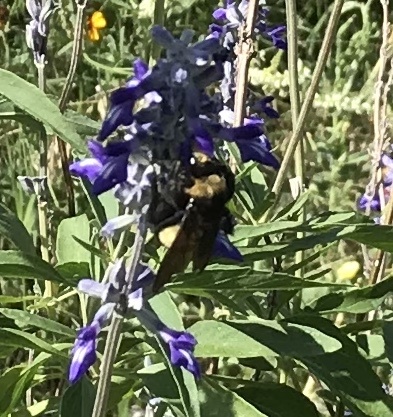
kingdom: Animalia
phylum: Arthropoda
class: Insecta
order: Hymenoptera
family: Apidae
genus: Bombus
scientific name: Bombus pensylvanicus
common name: Bumble bee
